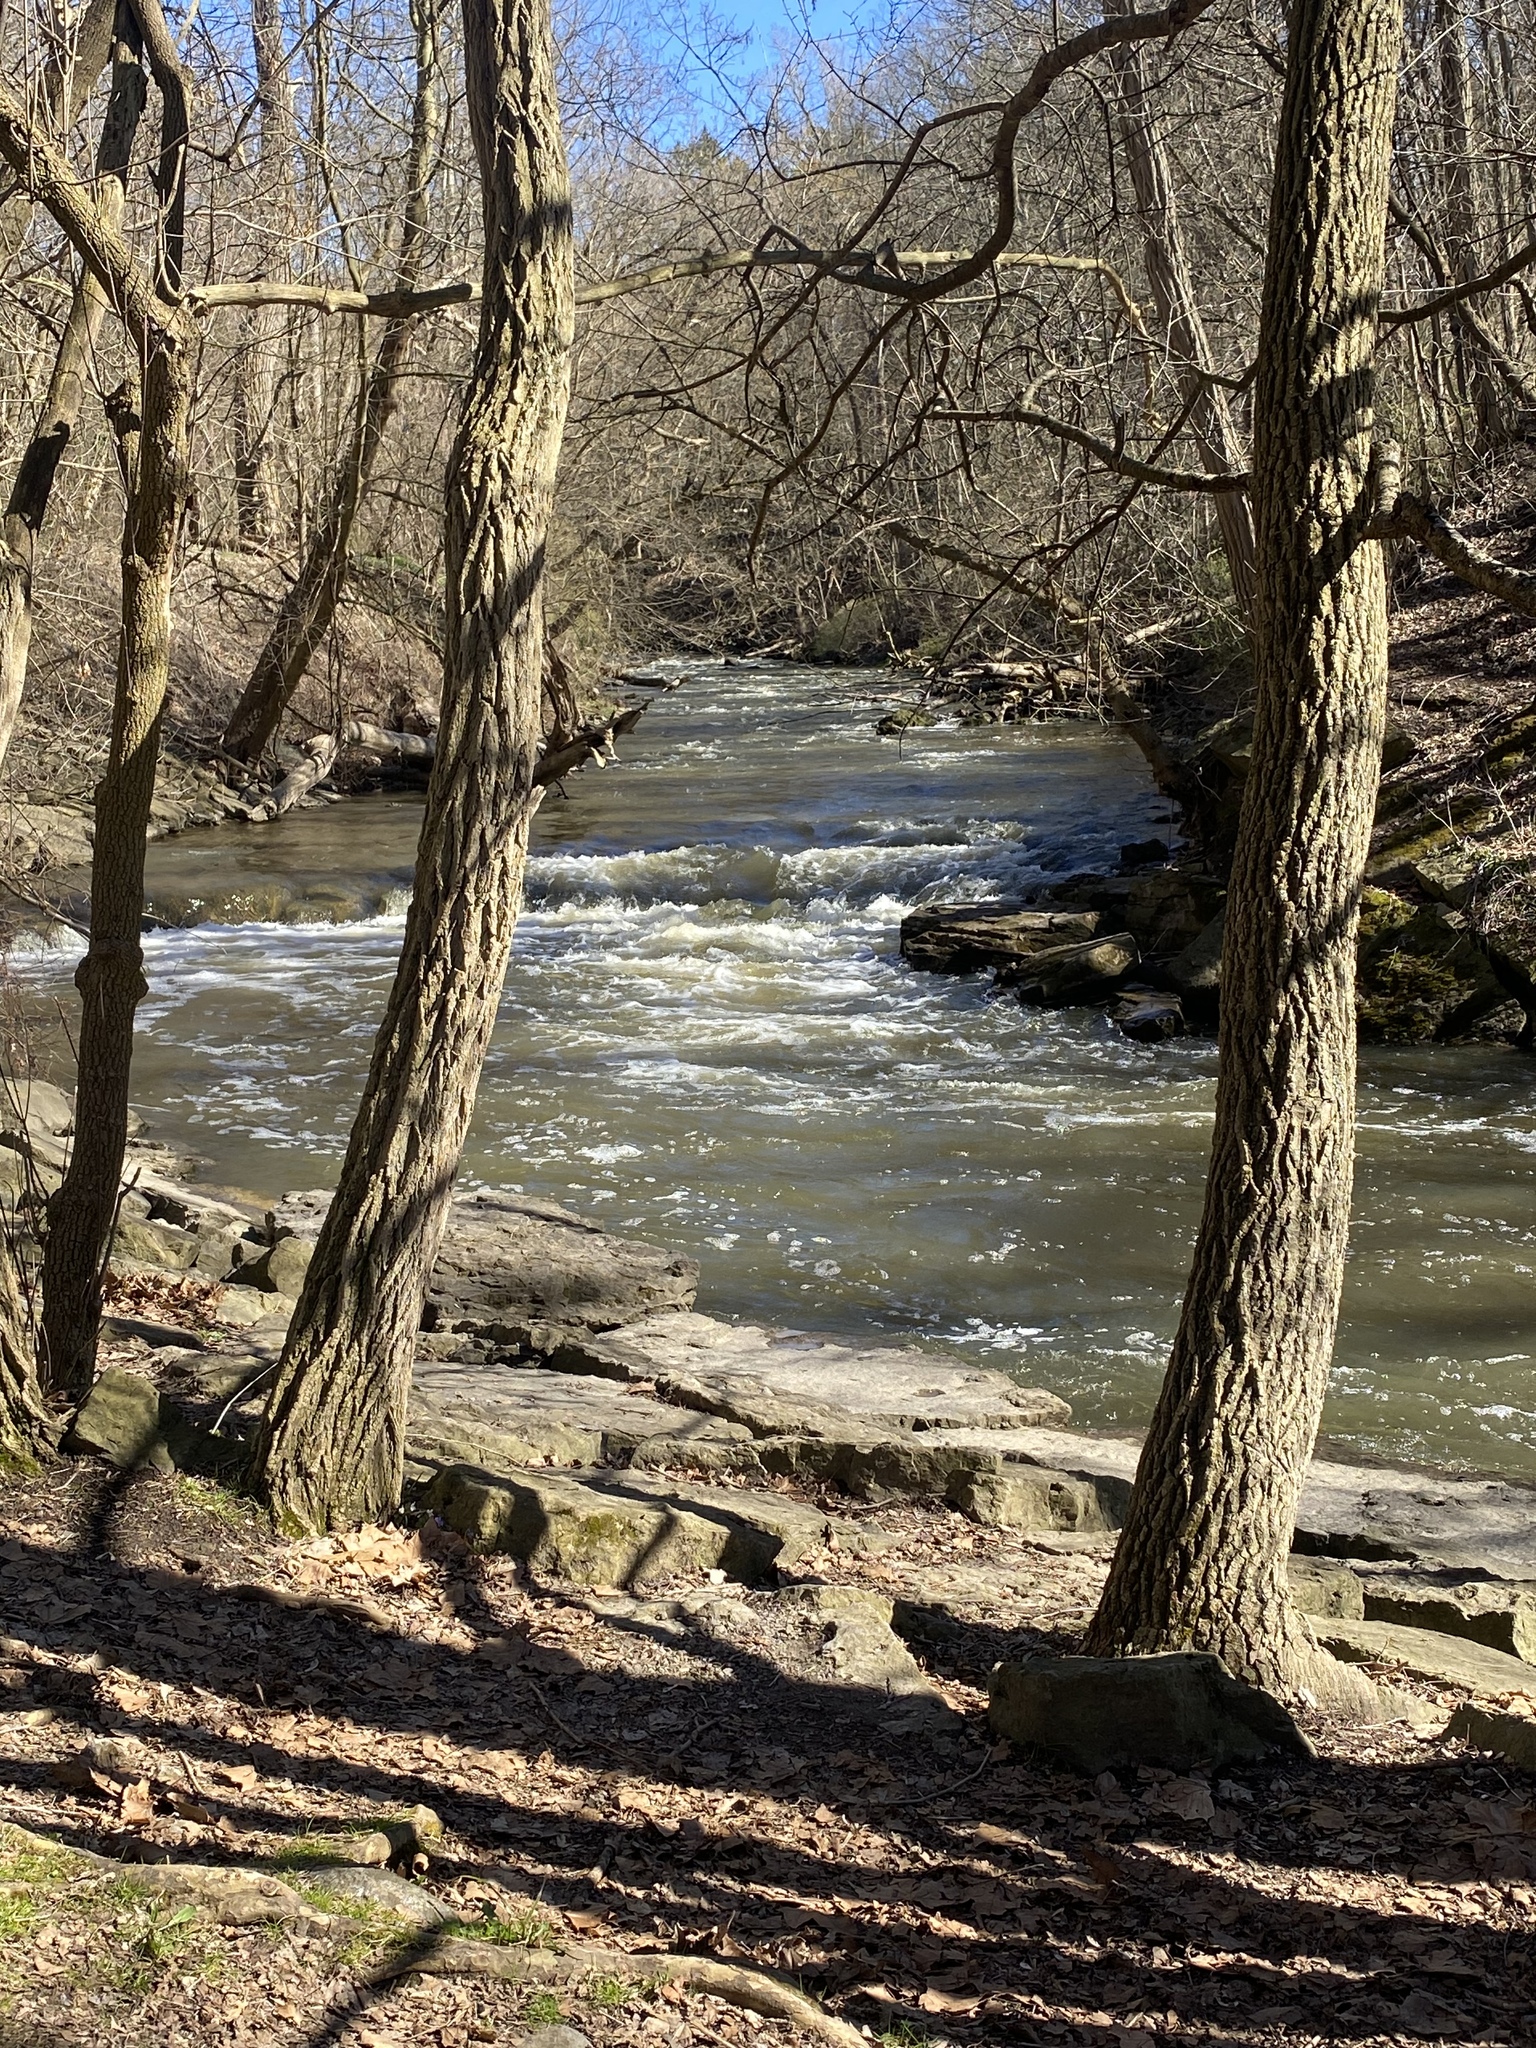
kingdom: Plantae
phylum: Tracheophyta
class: Liliopsida
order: Alismatales
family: Araceae
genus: Symplocarpus
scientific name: Symplocarpus foetidus
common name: Eastern skunk cabbage
